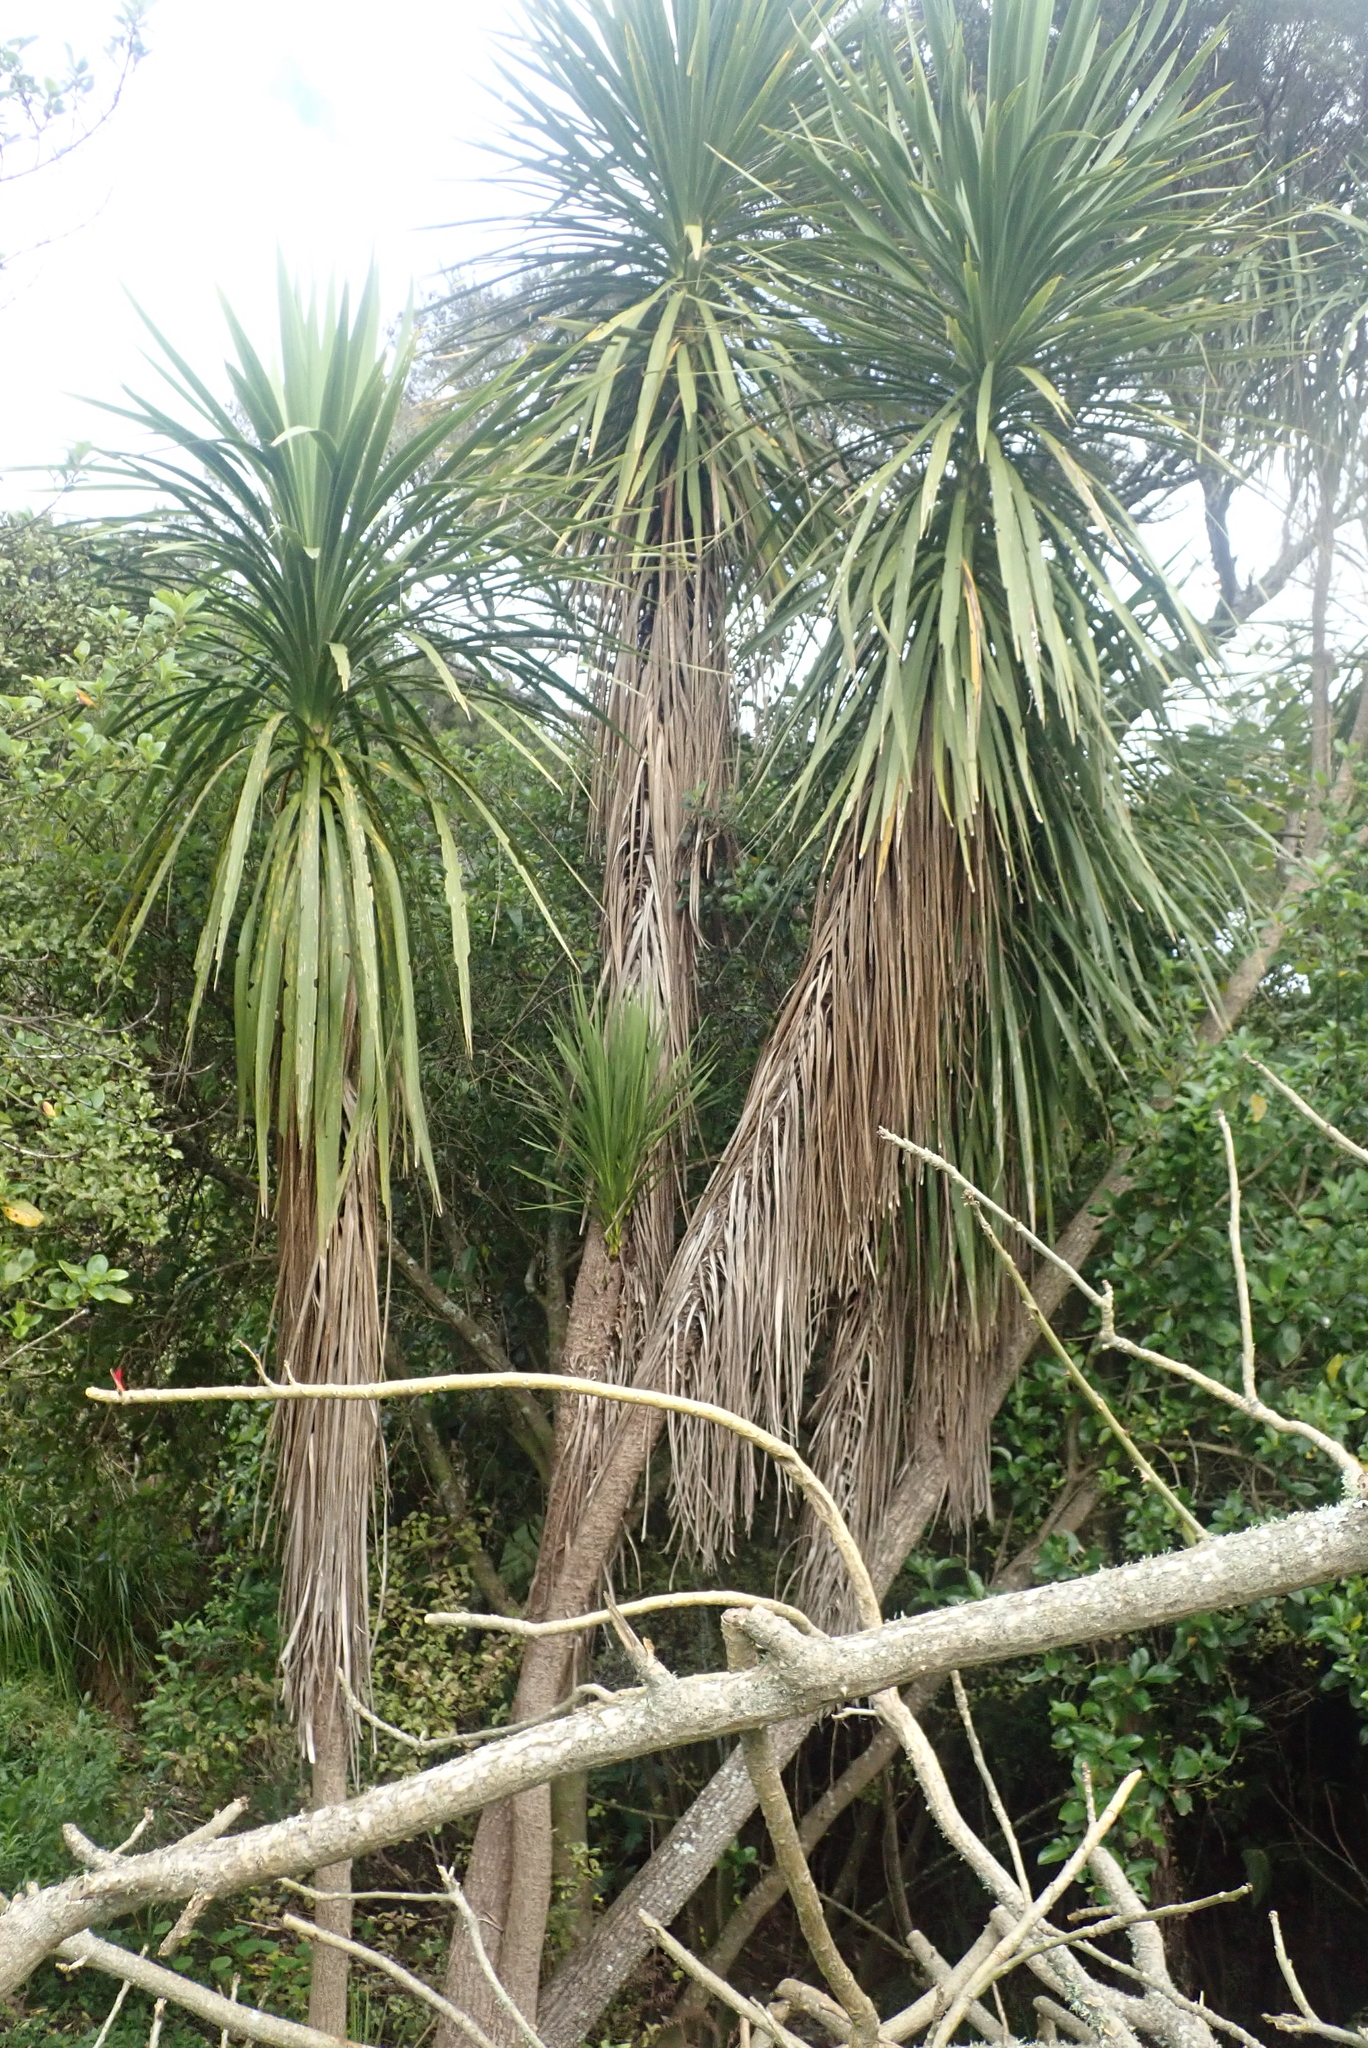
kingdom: Plantae
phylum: Tracheophyta
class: Liliopsida
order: Asparagales
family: Asparagaceae
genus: Cordyline
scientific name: Cordyline australis
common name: Cabbage-palm
